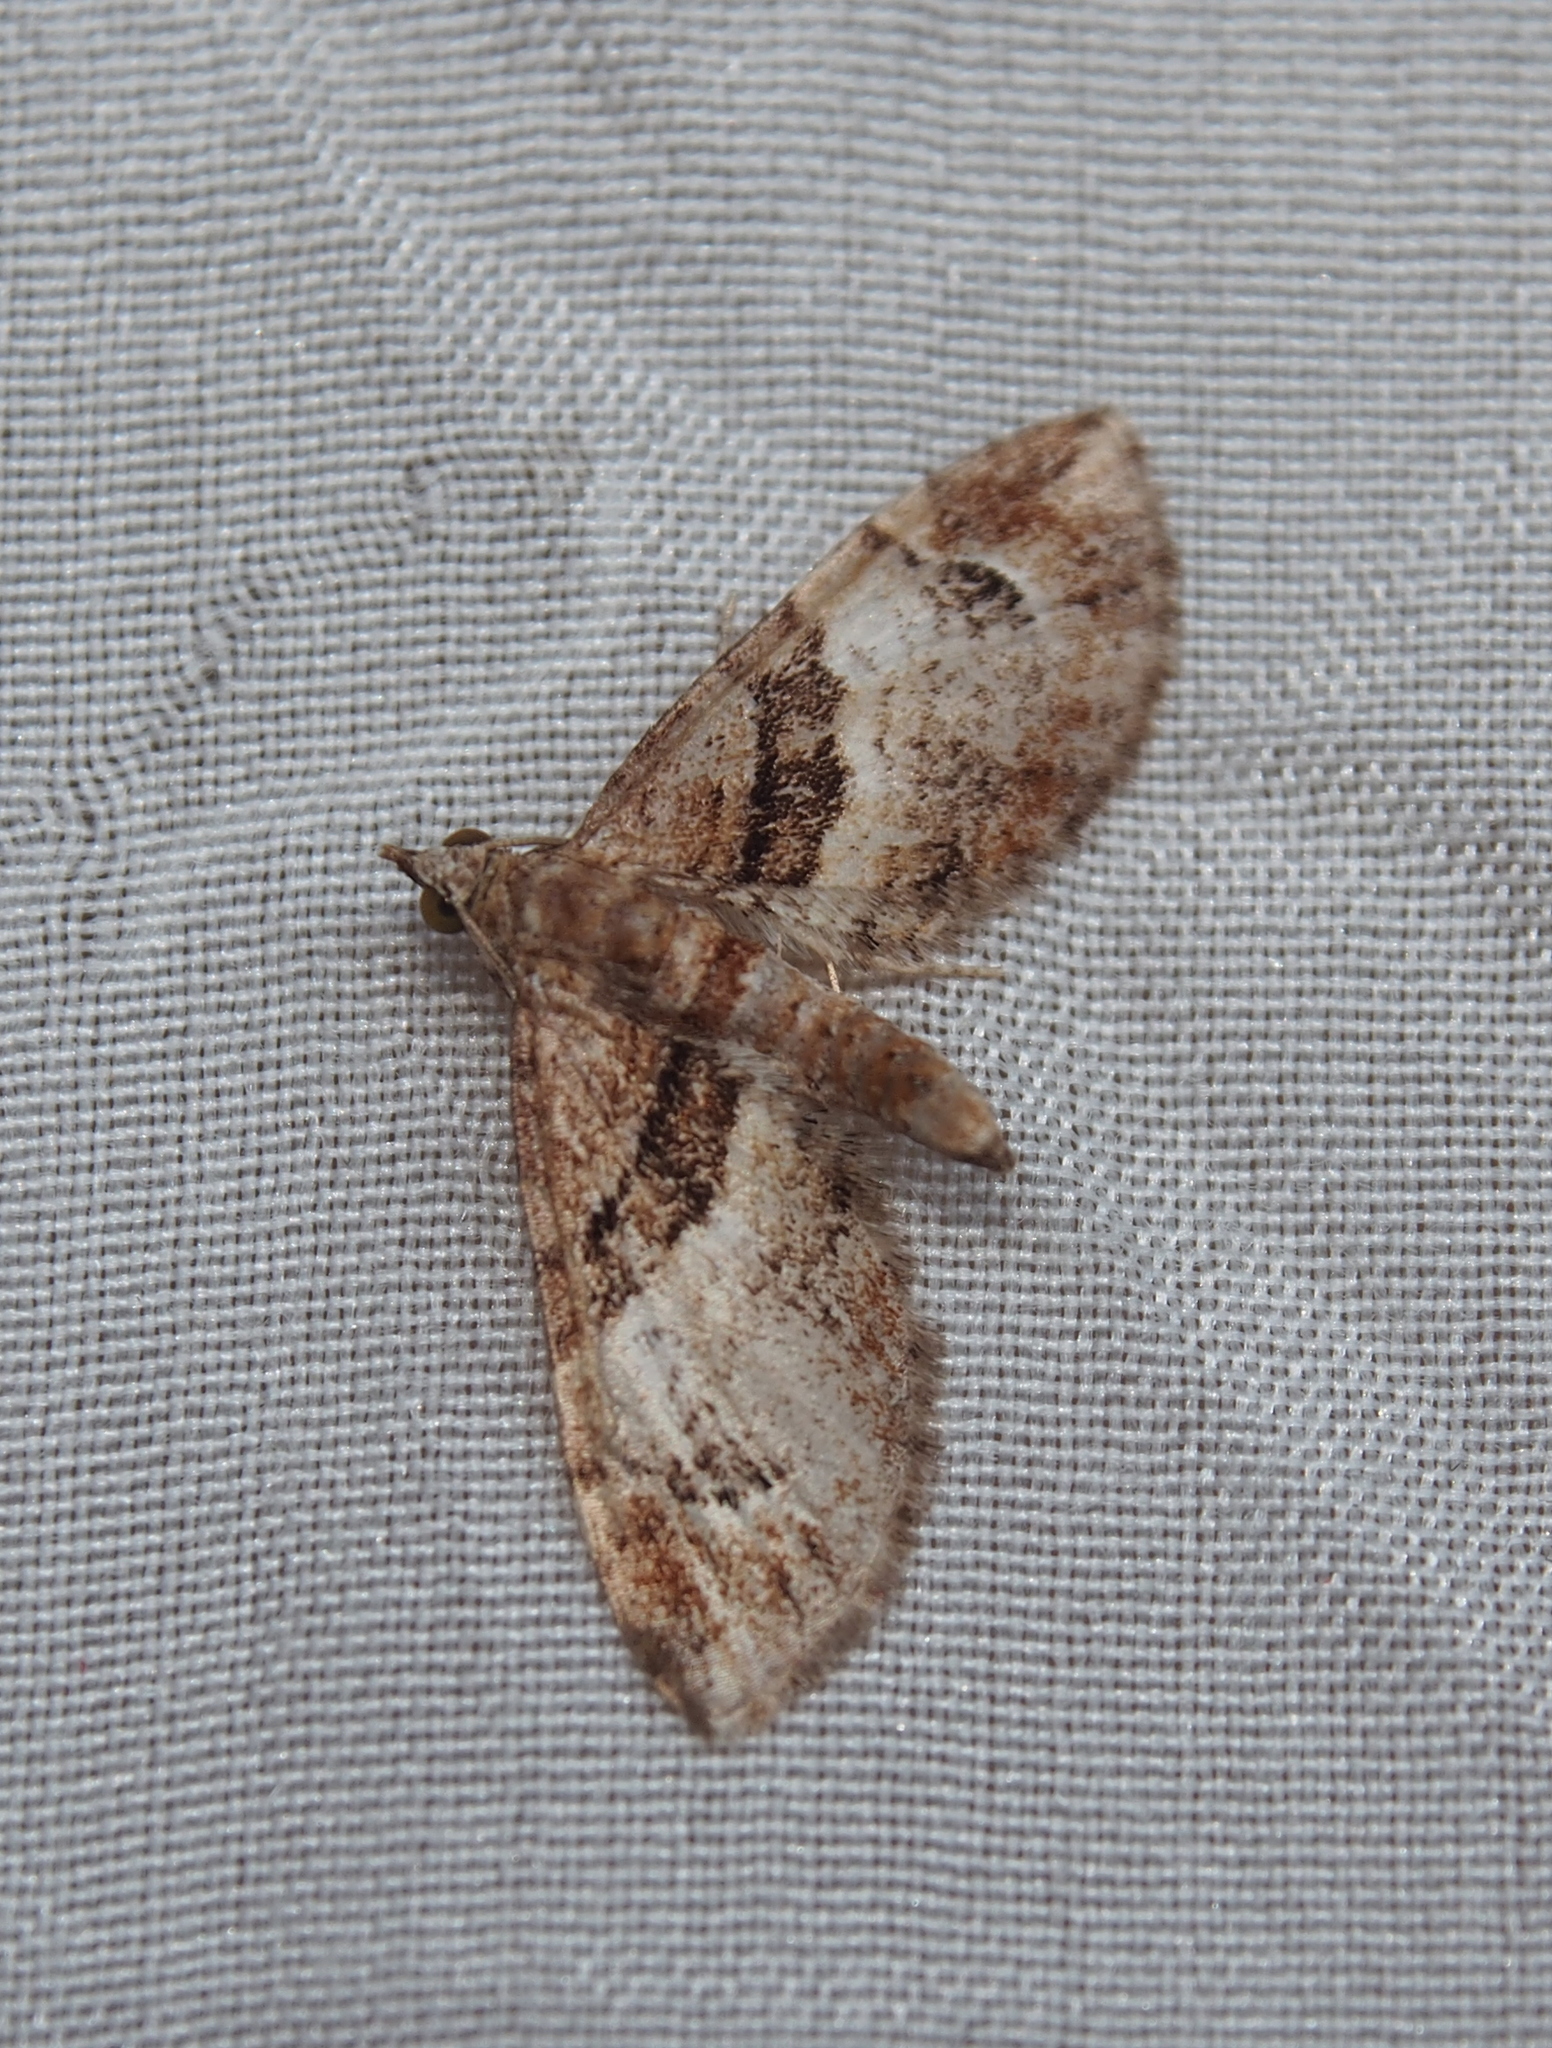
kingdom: Animalia
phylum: Arthropoda
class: Insecta
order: Lepidoptera
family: Geometridae
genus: Eupithecia
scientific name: Eupithecia briseis
